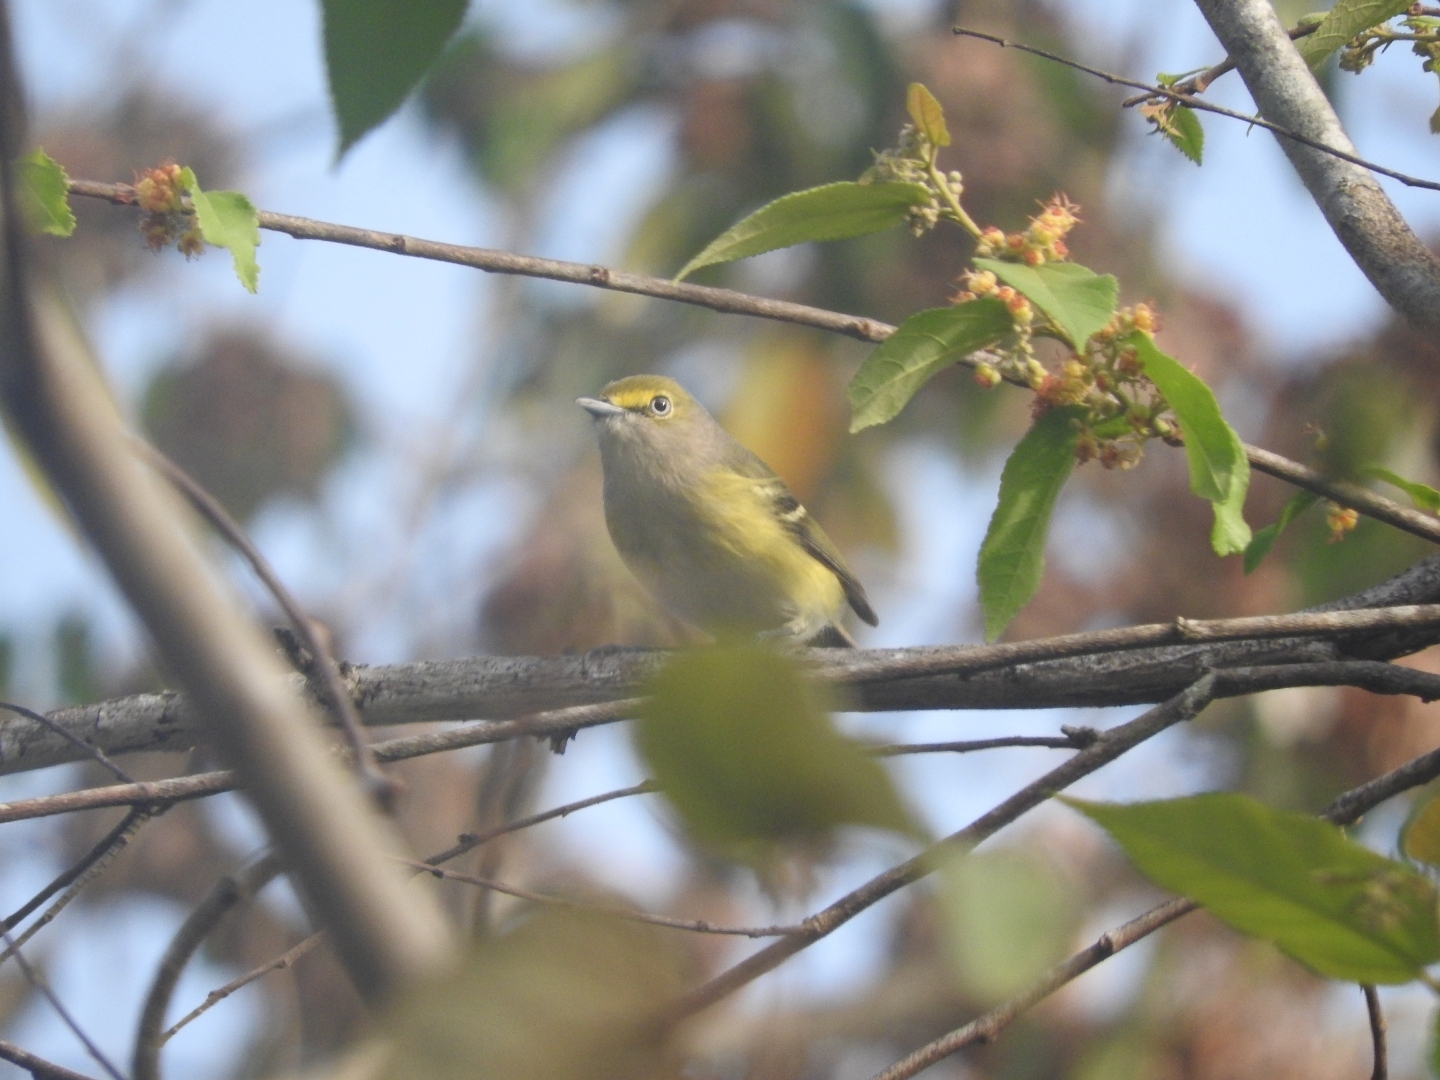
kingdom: Animalia
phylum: Chordata
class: Aves
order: Passeriformes
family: Vireonidae
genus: Vireo
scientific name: Vireo griseus
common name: White-eyed vireo
